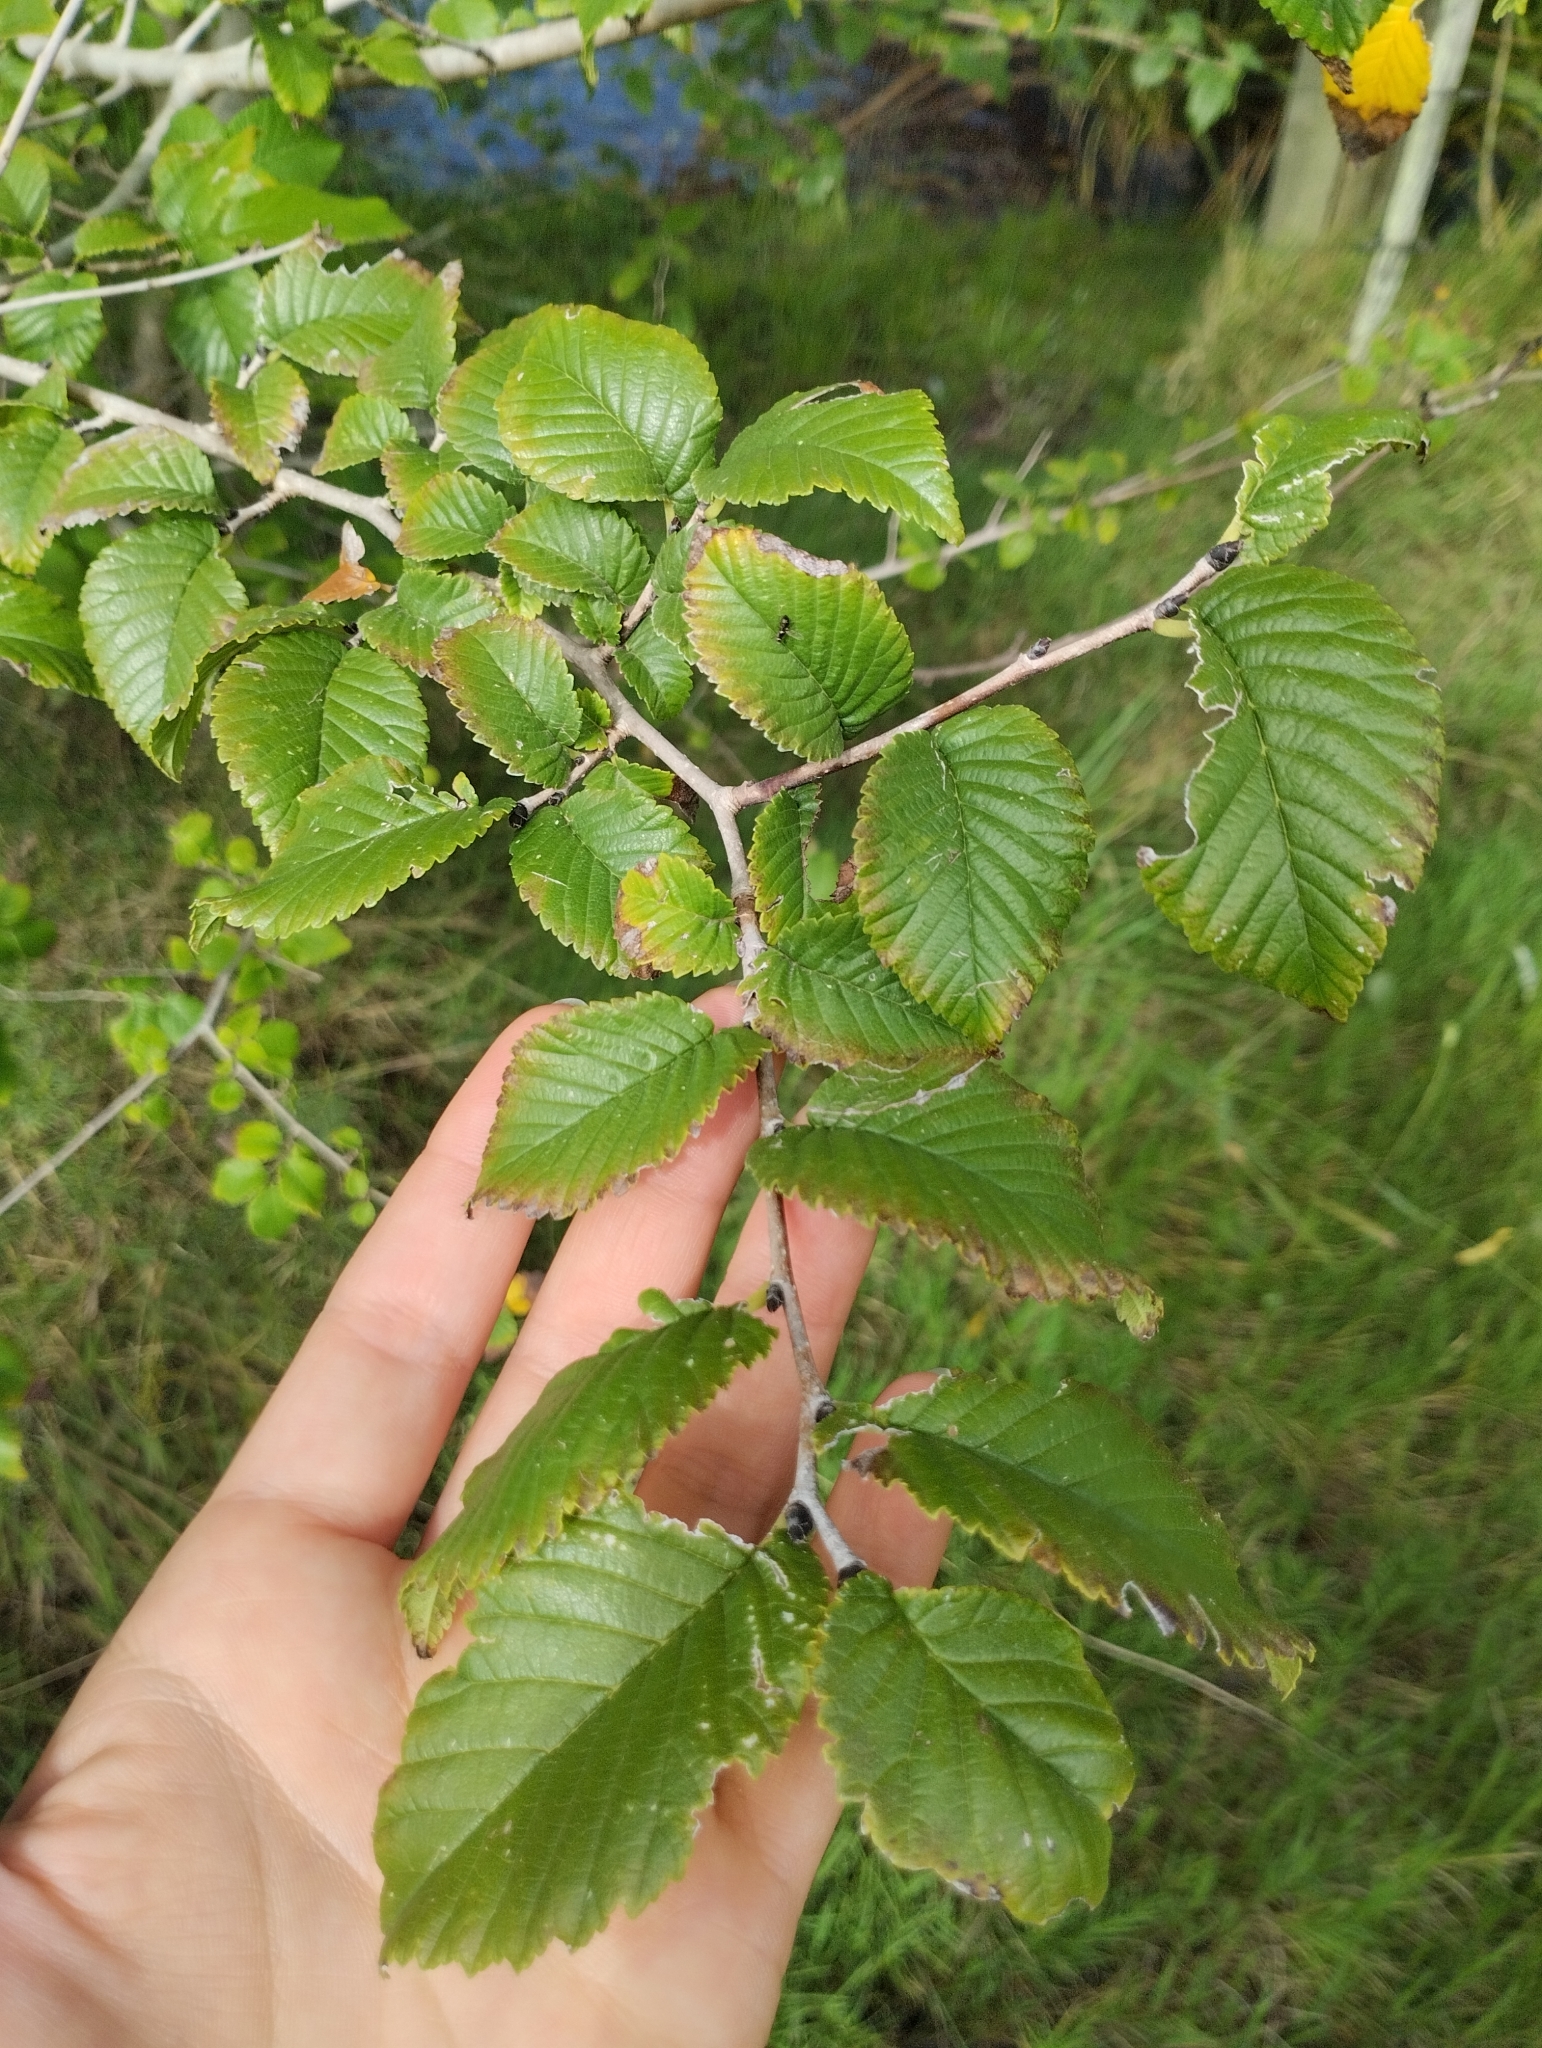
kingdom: Plantae
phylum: Tracheophyta
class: Magnoliopsida
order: Rosales
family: Ulmaceae
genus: Ulmus
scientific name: Ulmus minor
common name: Small-leaved elm
